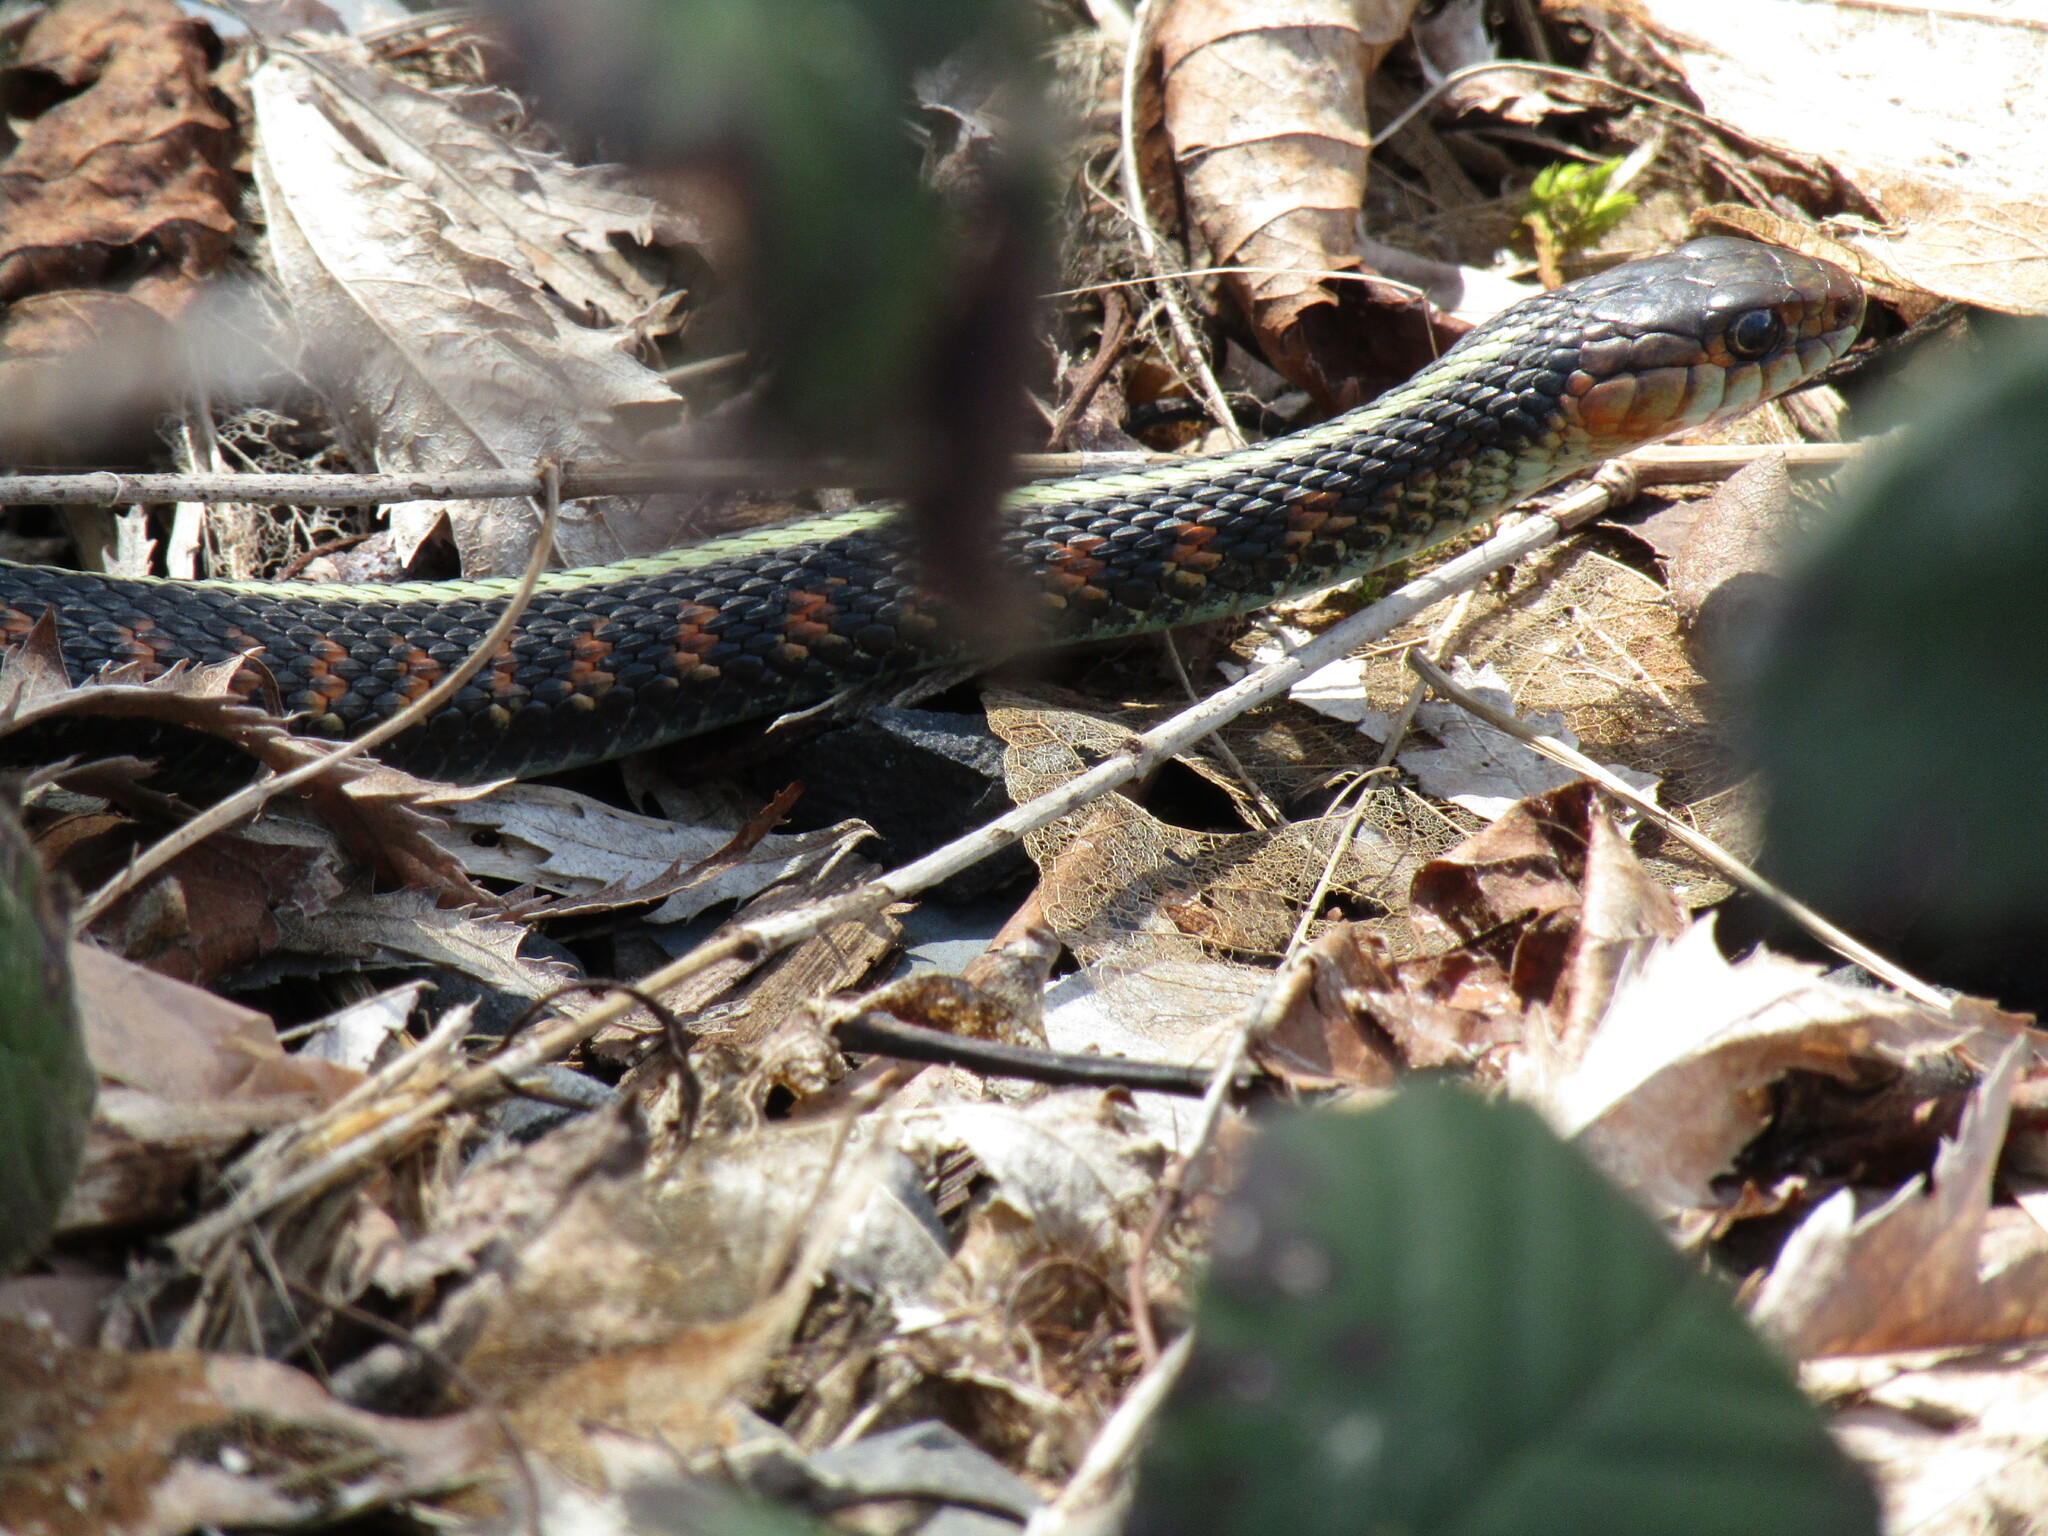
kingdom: Animalia
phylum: Chordata
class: Squamata
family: Colubridae
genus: Thamnophis
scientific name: Thamnophis sirtalis
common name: Common garter snake
